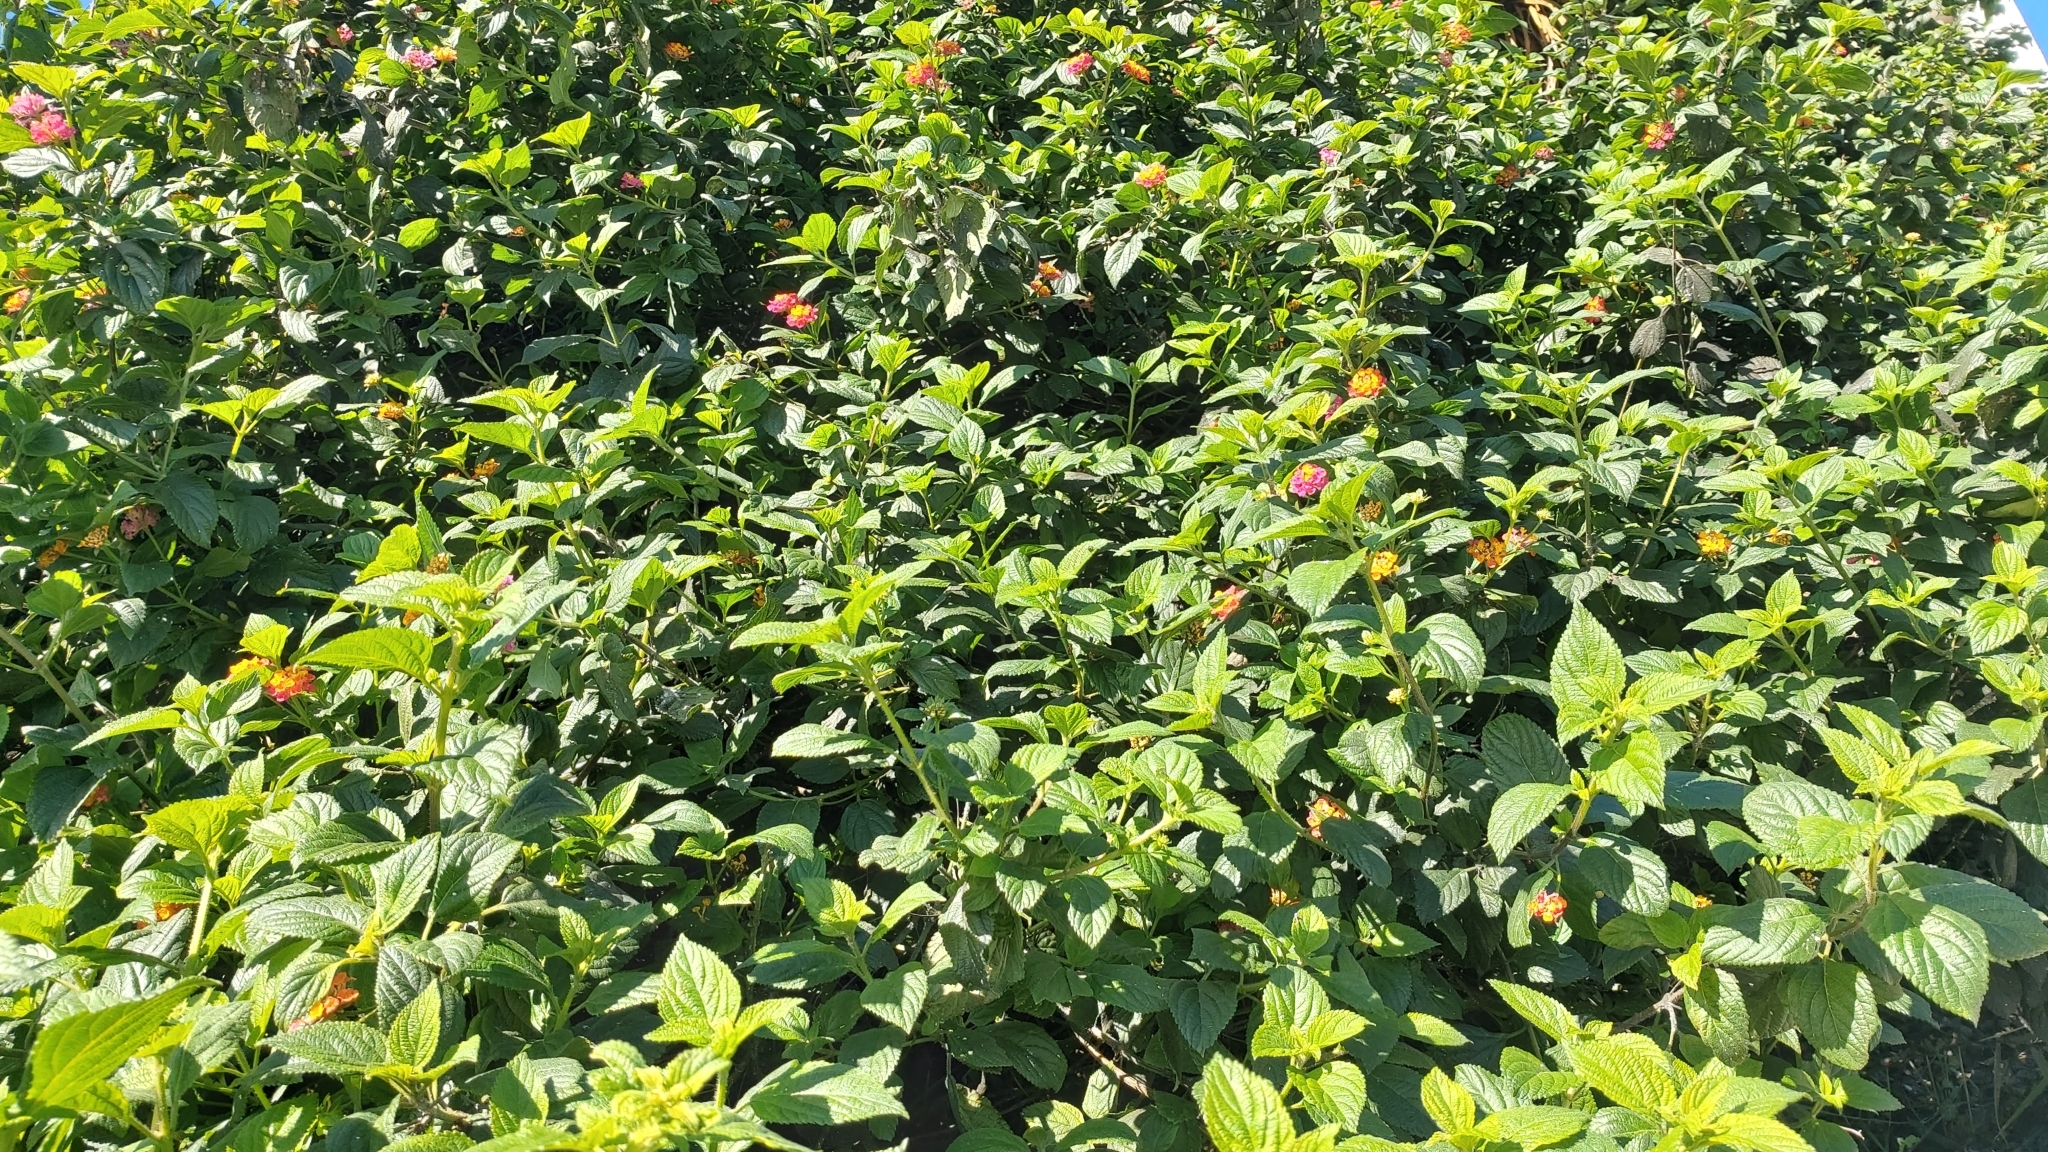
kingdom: Plantae
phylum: Tracheophyta
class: Magnoliopsida
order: Lamiales
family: Verbenaceae
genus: Lantana
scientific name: Lantana camara
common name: Lantana
